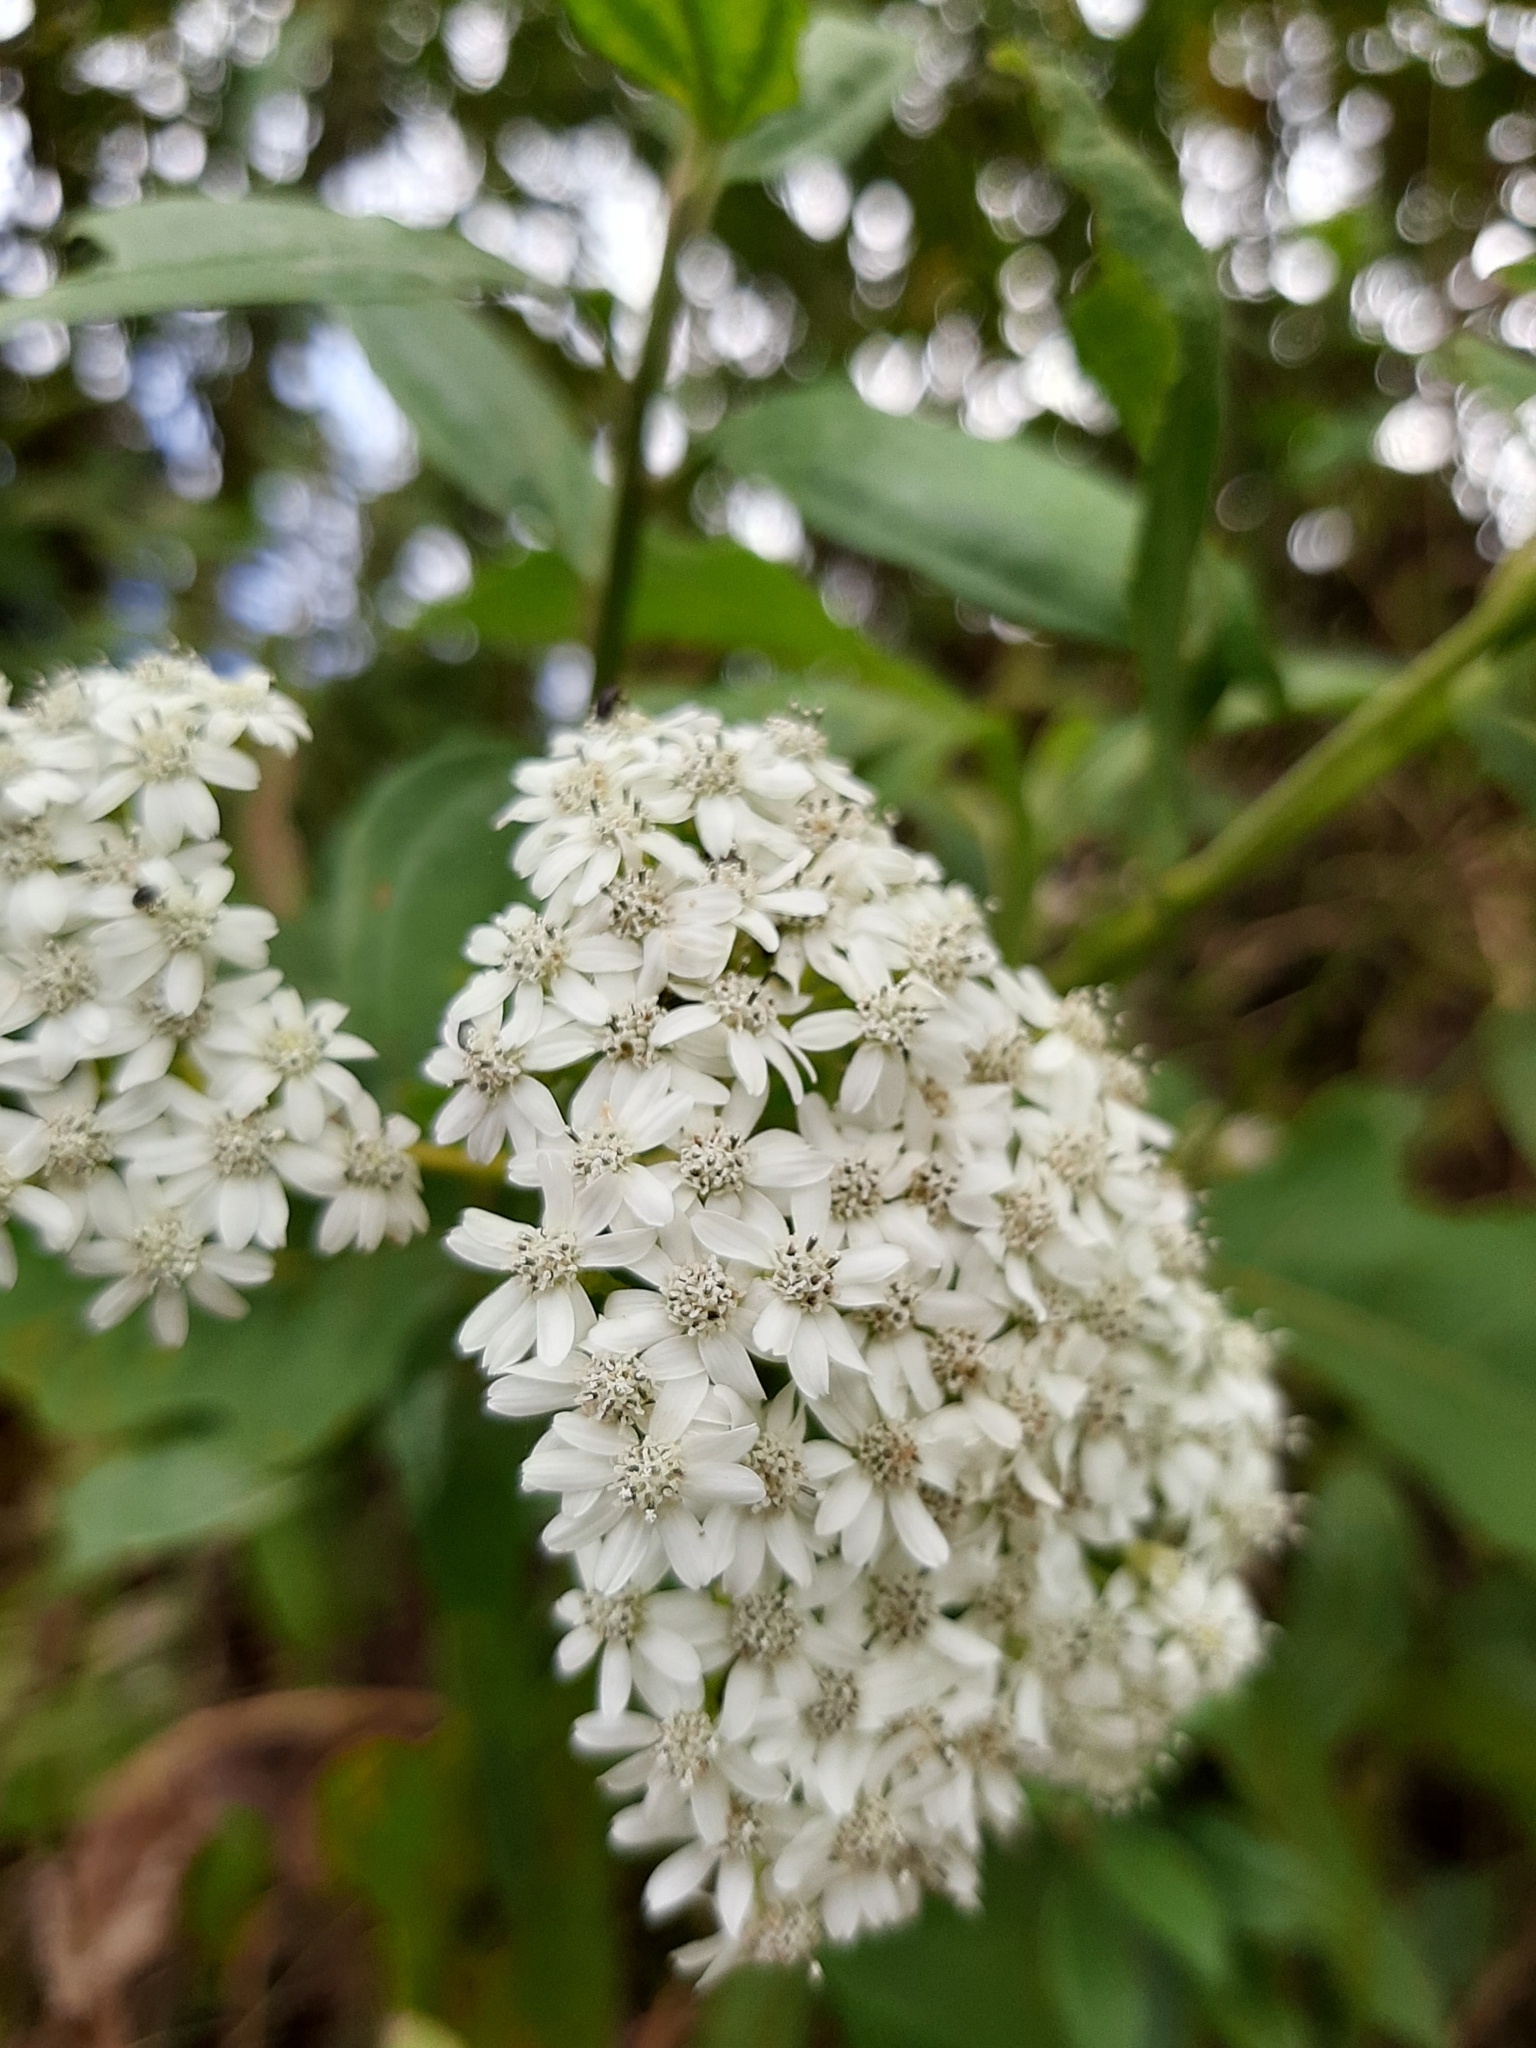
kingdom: Plantae
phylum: Tracheophyta
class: Magnoliopsida
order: Asterales
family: Asteraceae
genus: Verbesina
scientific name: Verbesina turbacensis
